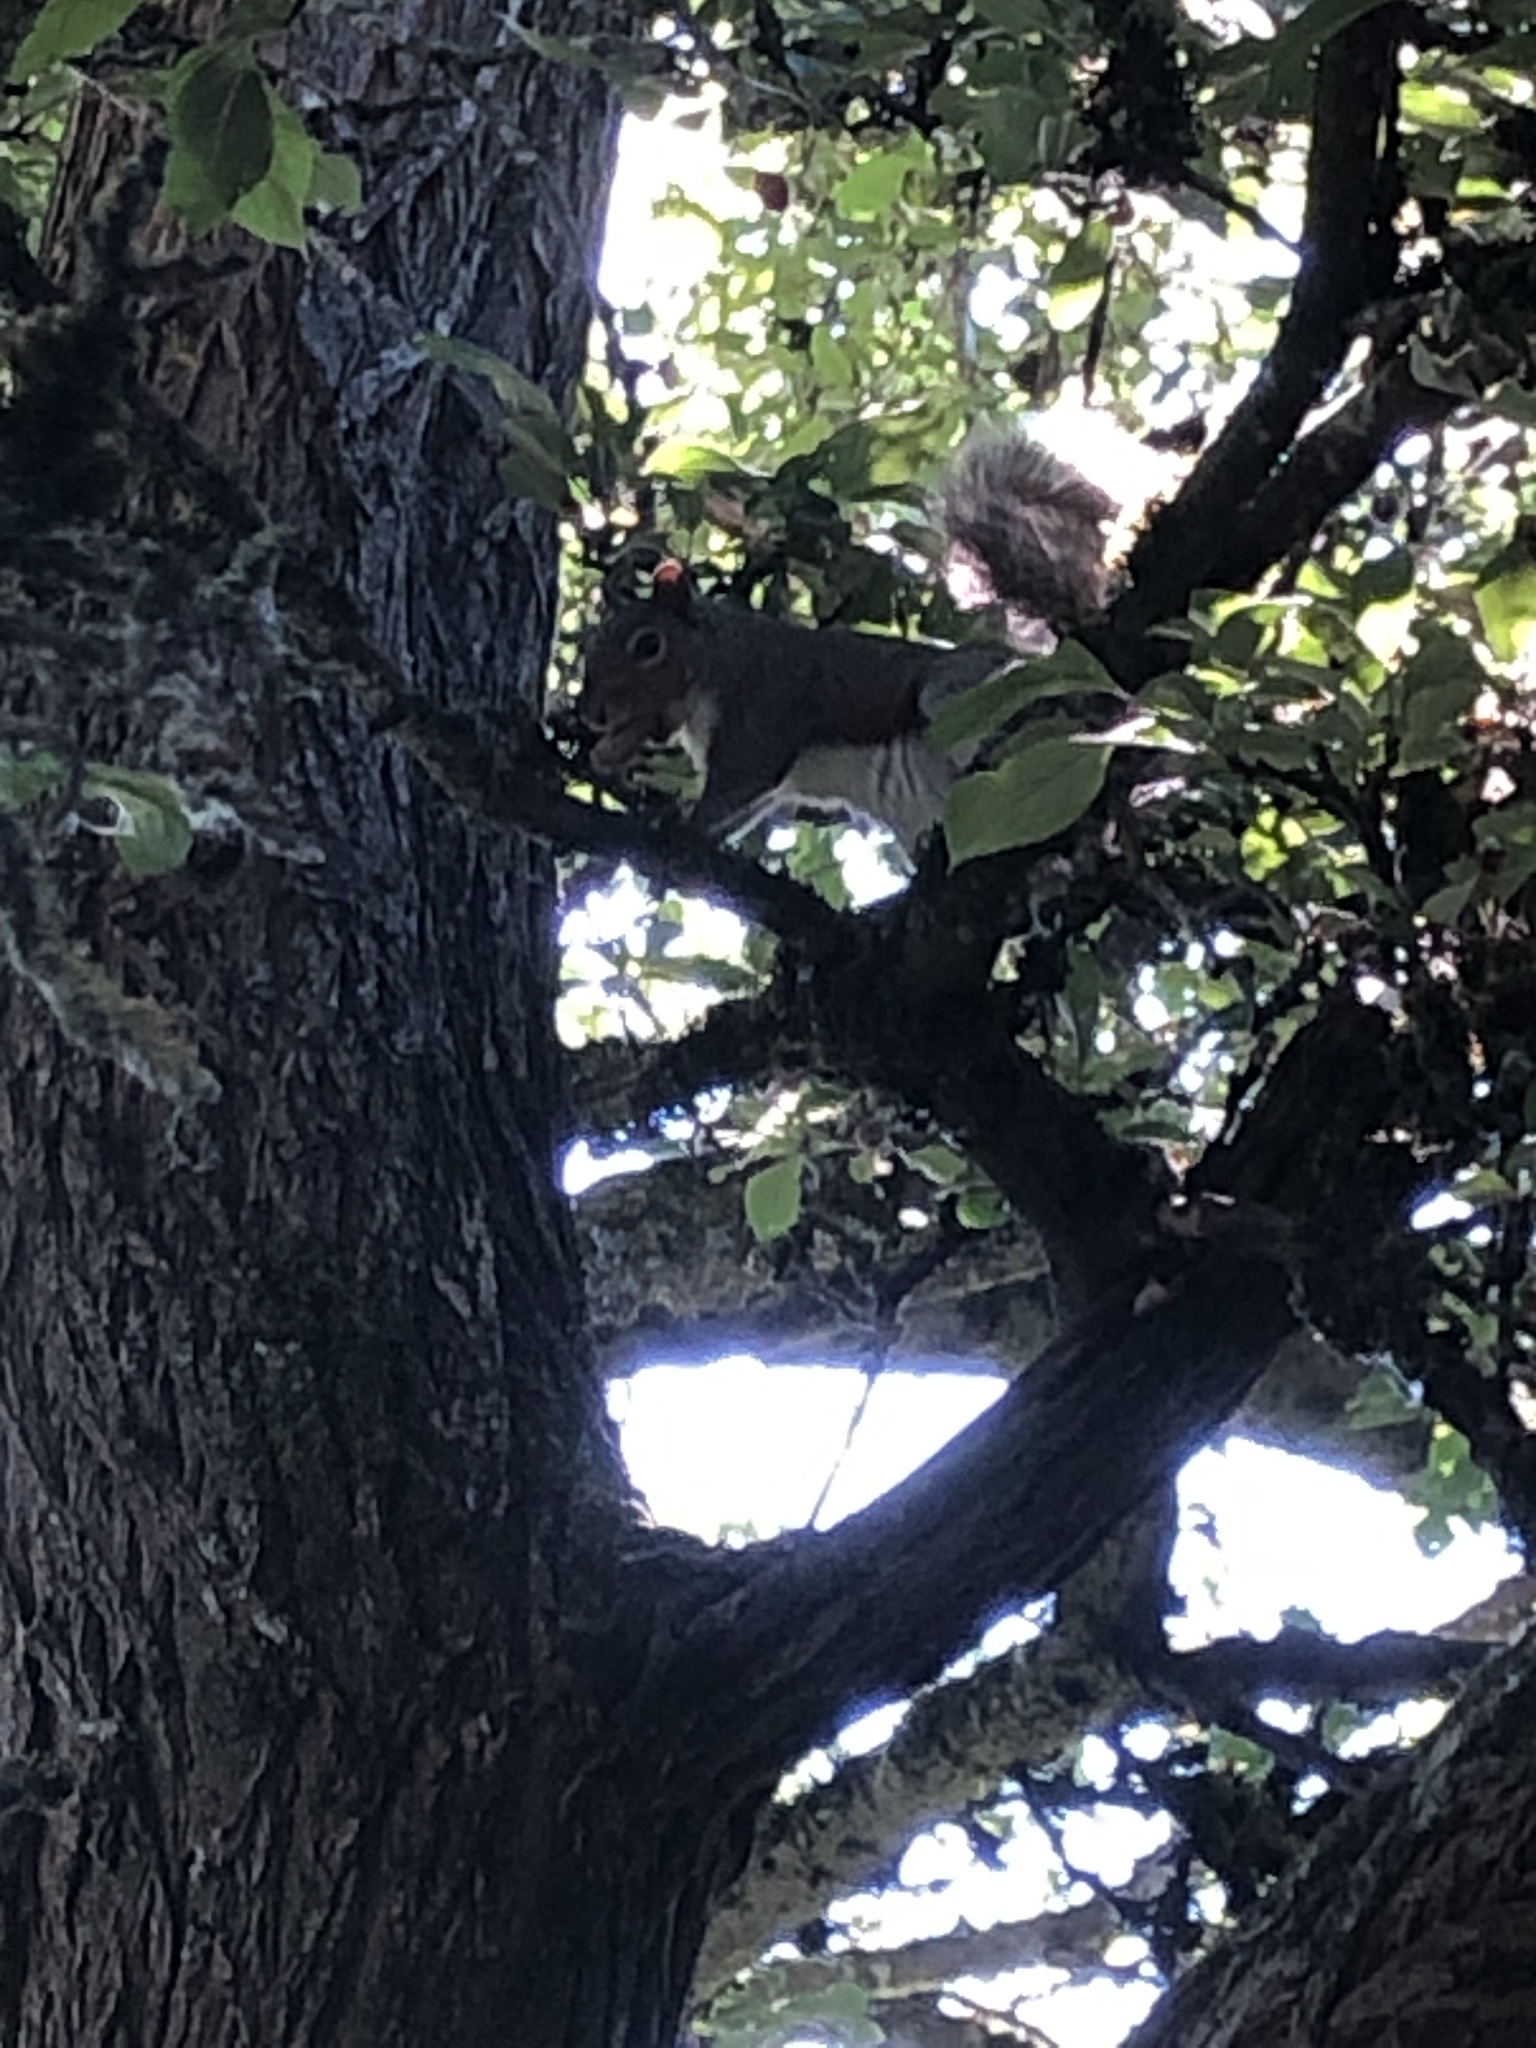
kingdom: Animalia
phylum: Chordata
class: Mammalia
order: Rodentia
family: Sciuridae
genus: Sciurus
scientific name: Sciurus carolinensis
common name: Eastern gray squirrel
